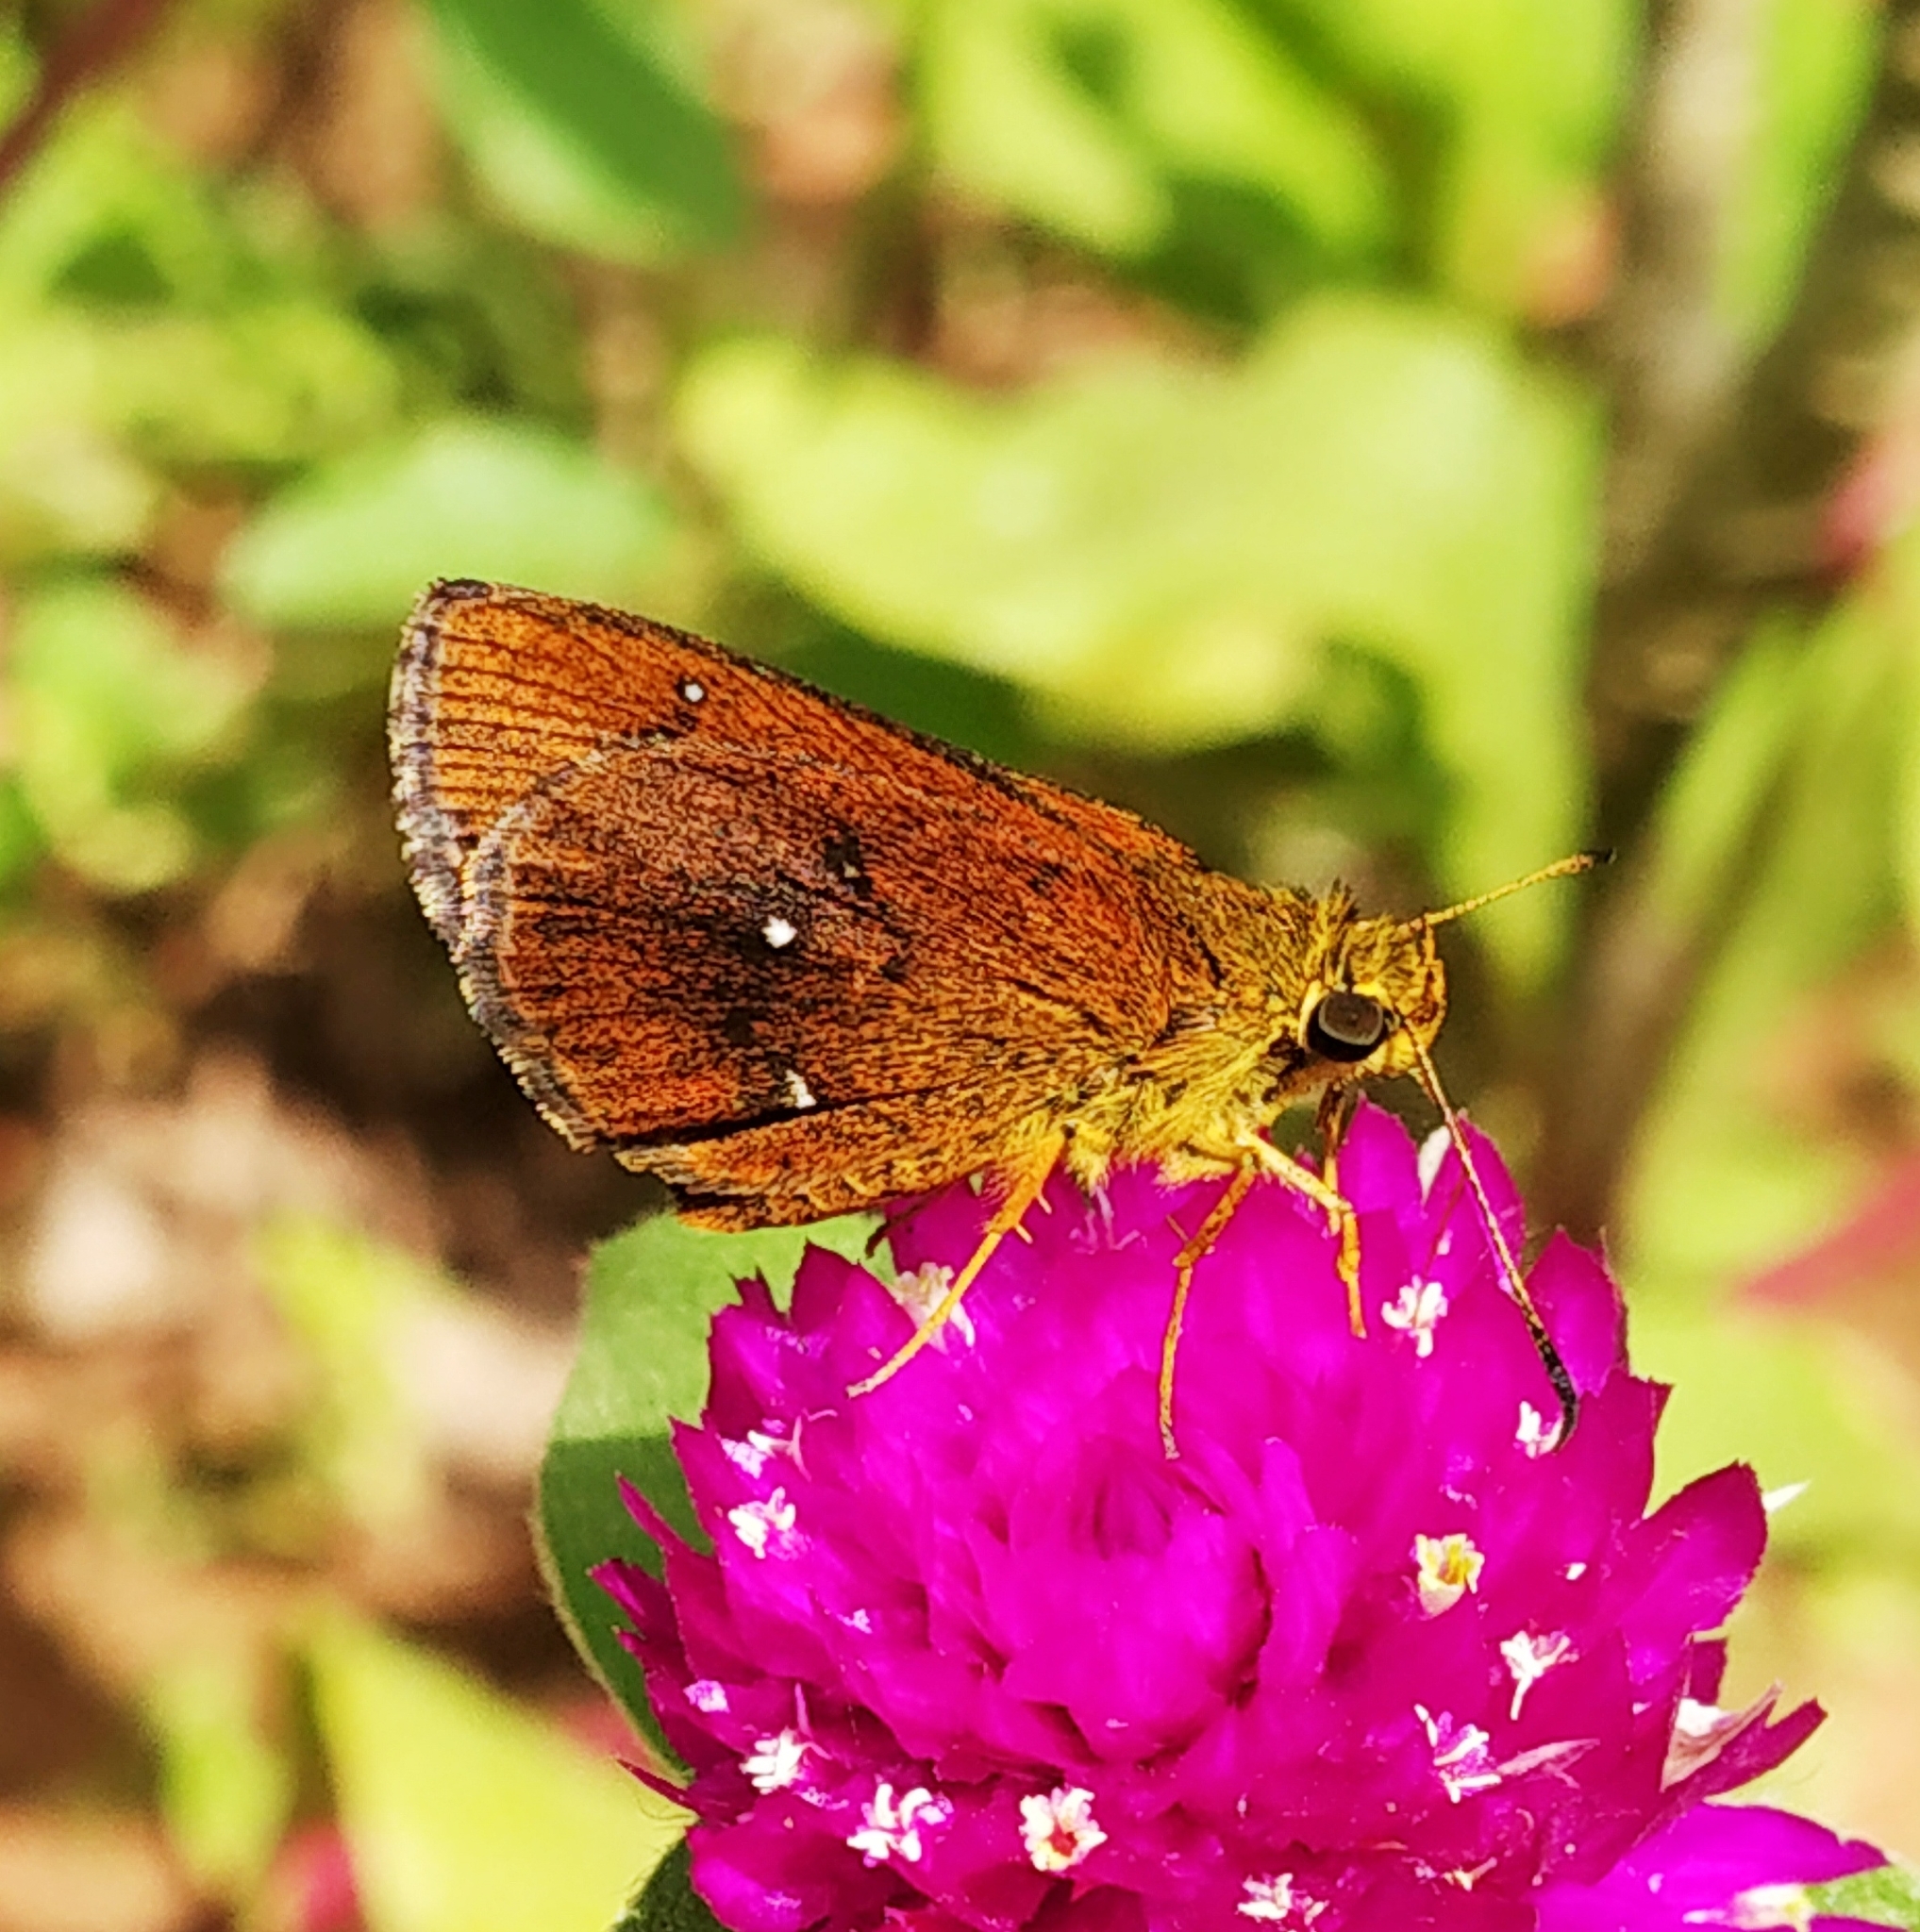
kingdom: Animalia
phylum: Arthropoda
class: Insecta
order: Lepidoptera
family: Hesperiidae
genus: Iambrix
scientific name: Iambrix salsala
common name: Chestnut bob
